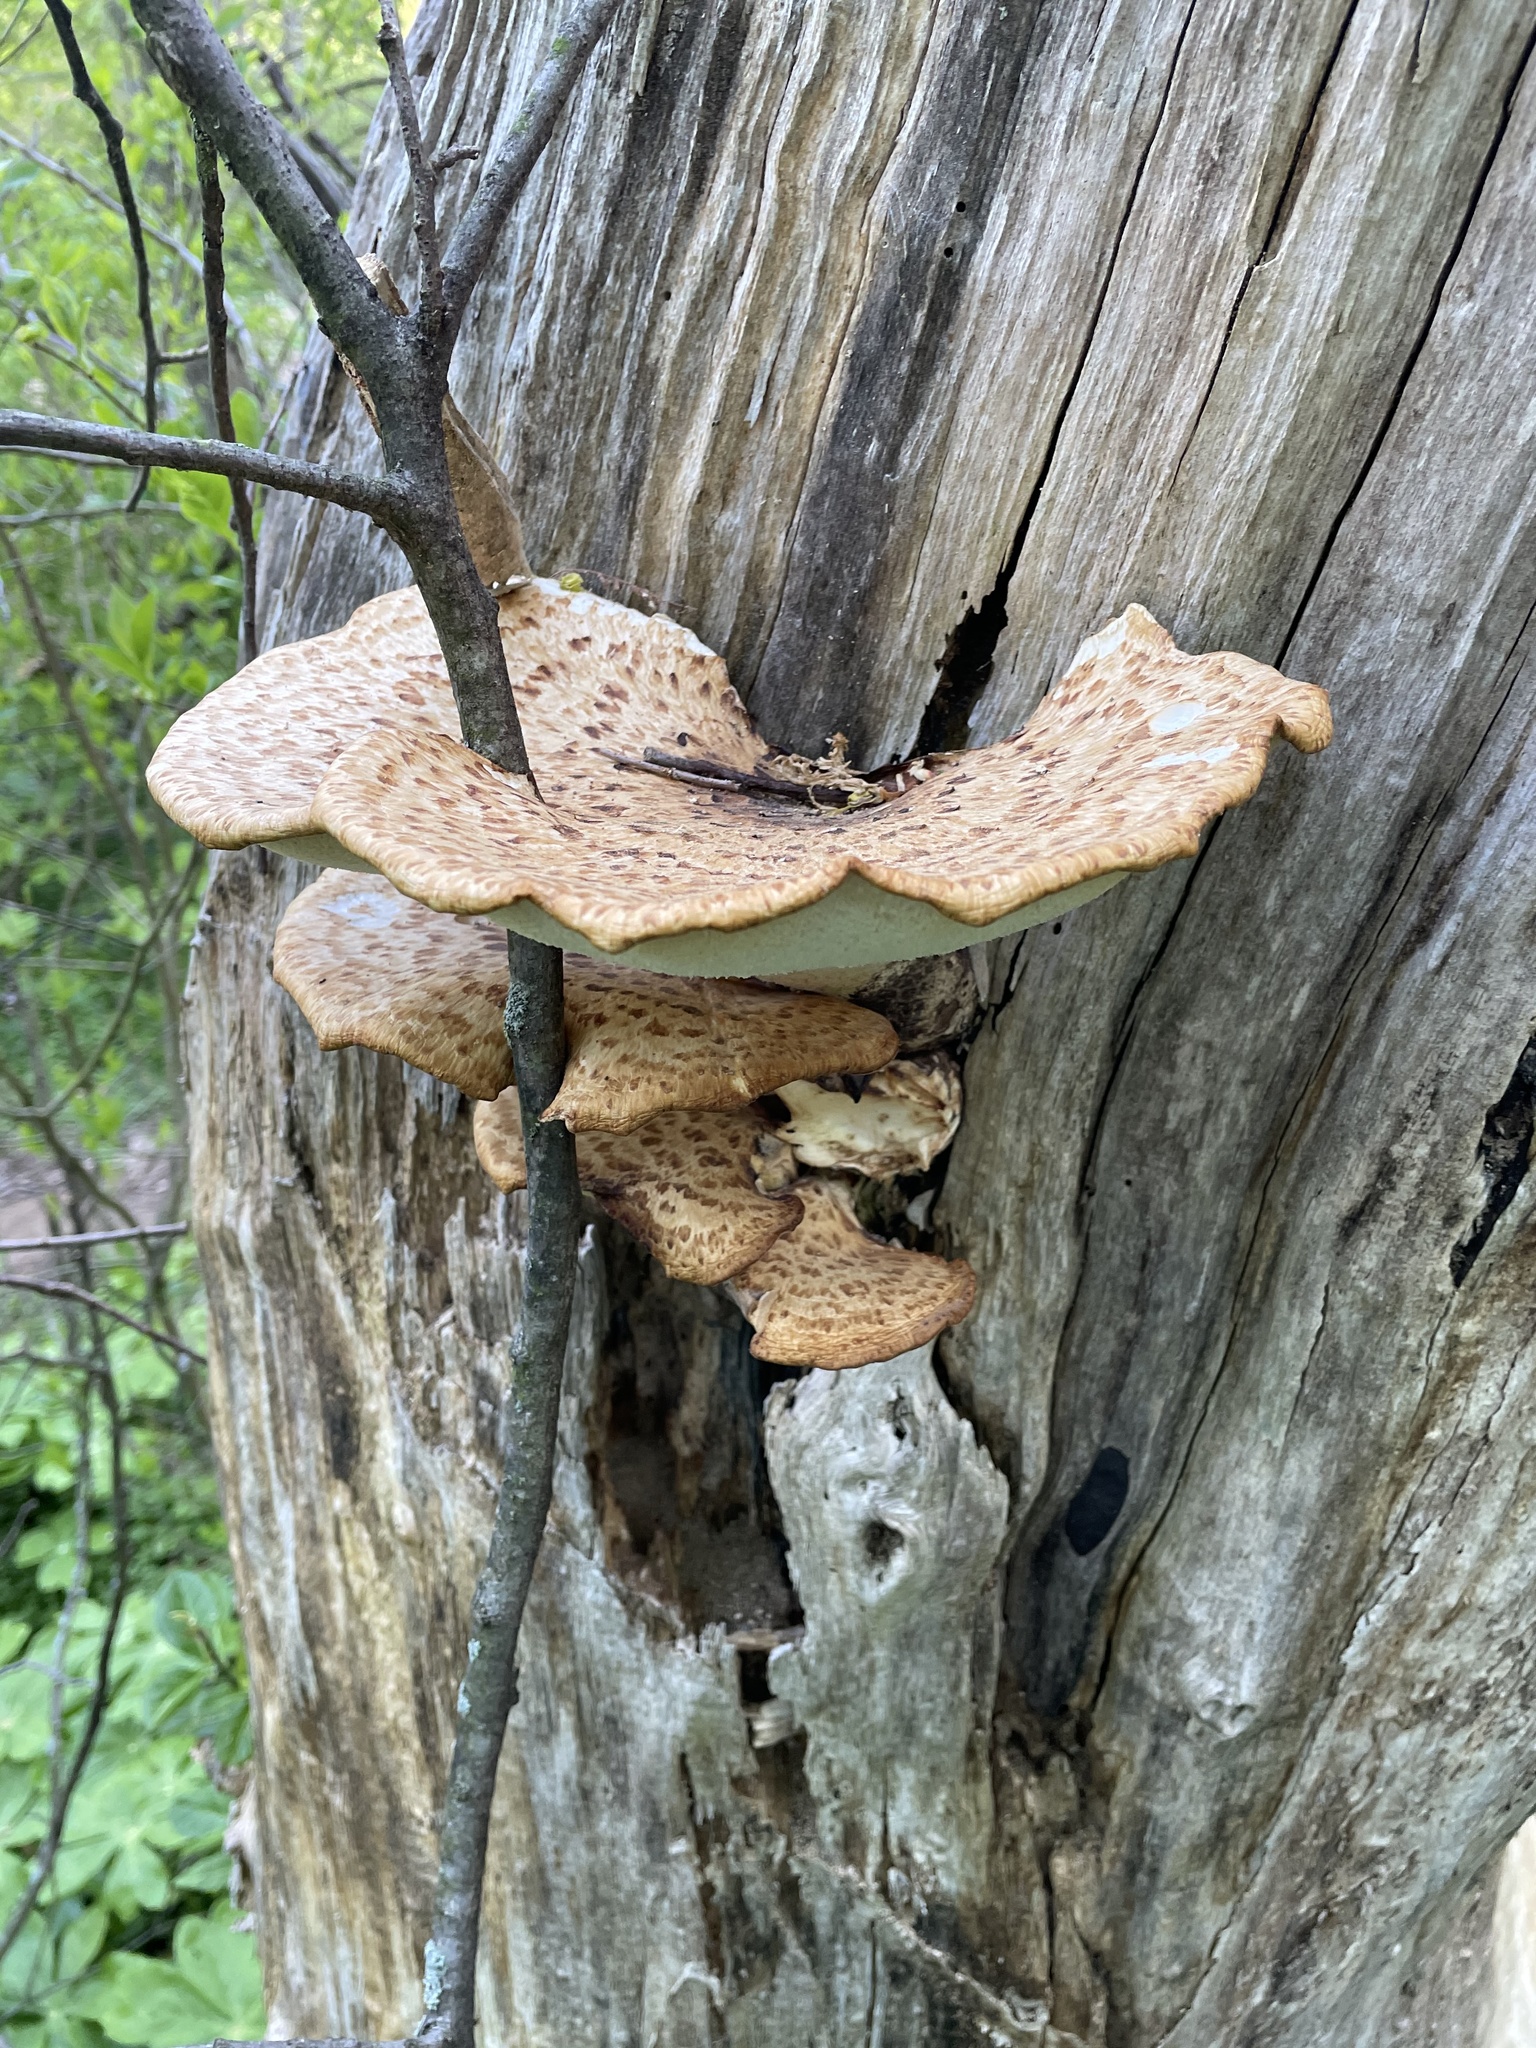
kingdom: Fungi
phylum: Basidiomycota
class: Agaricomycetes
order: Polyporales
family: Polyporaceae
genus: Cerioporus
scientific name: Cerioporus squamosus
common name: Dryad's saddle
